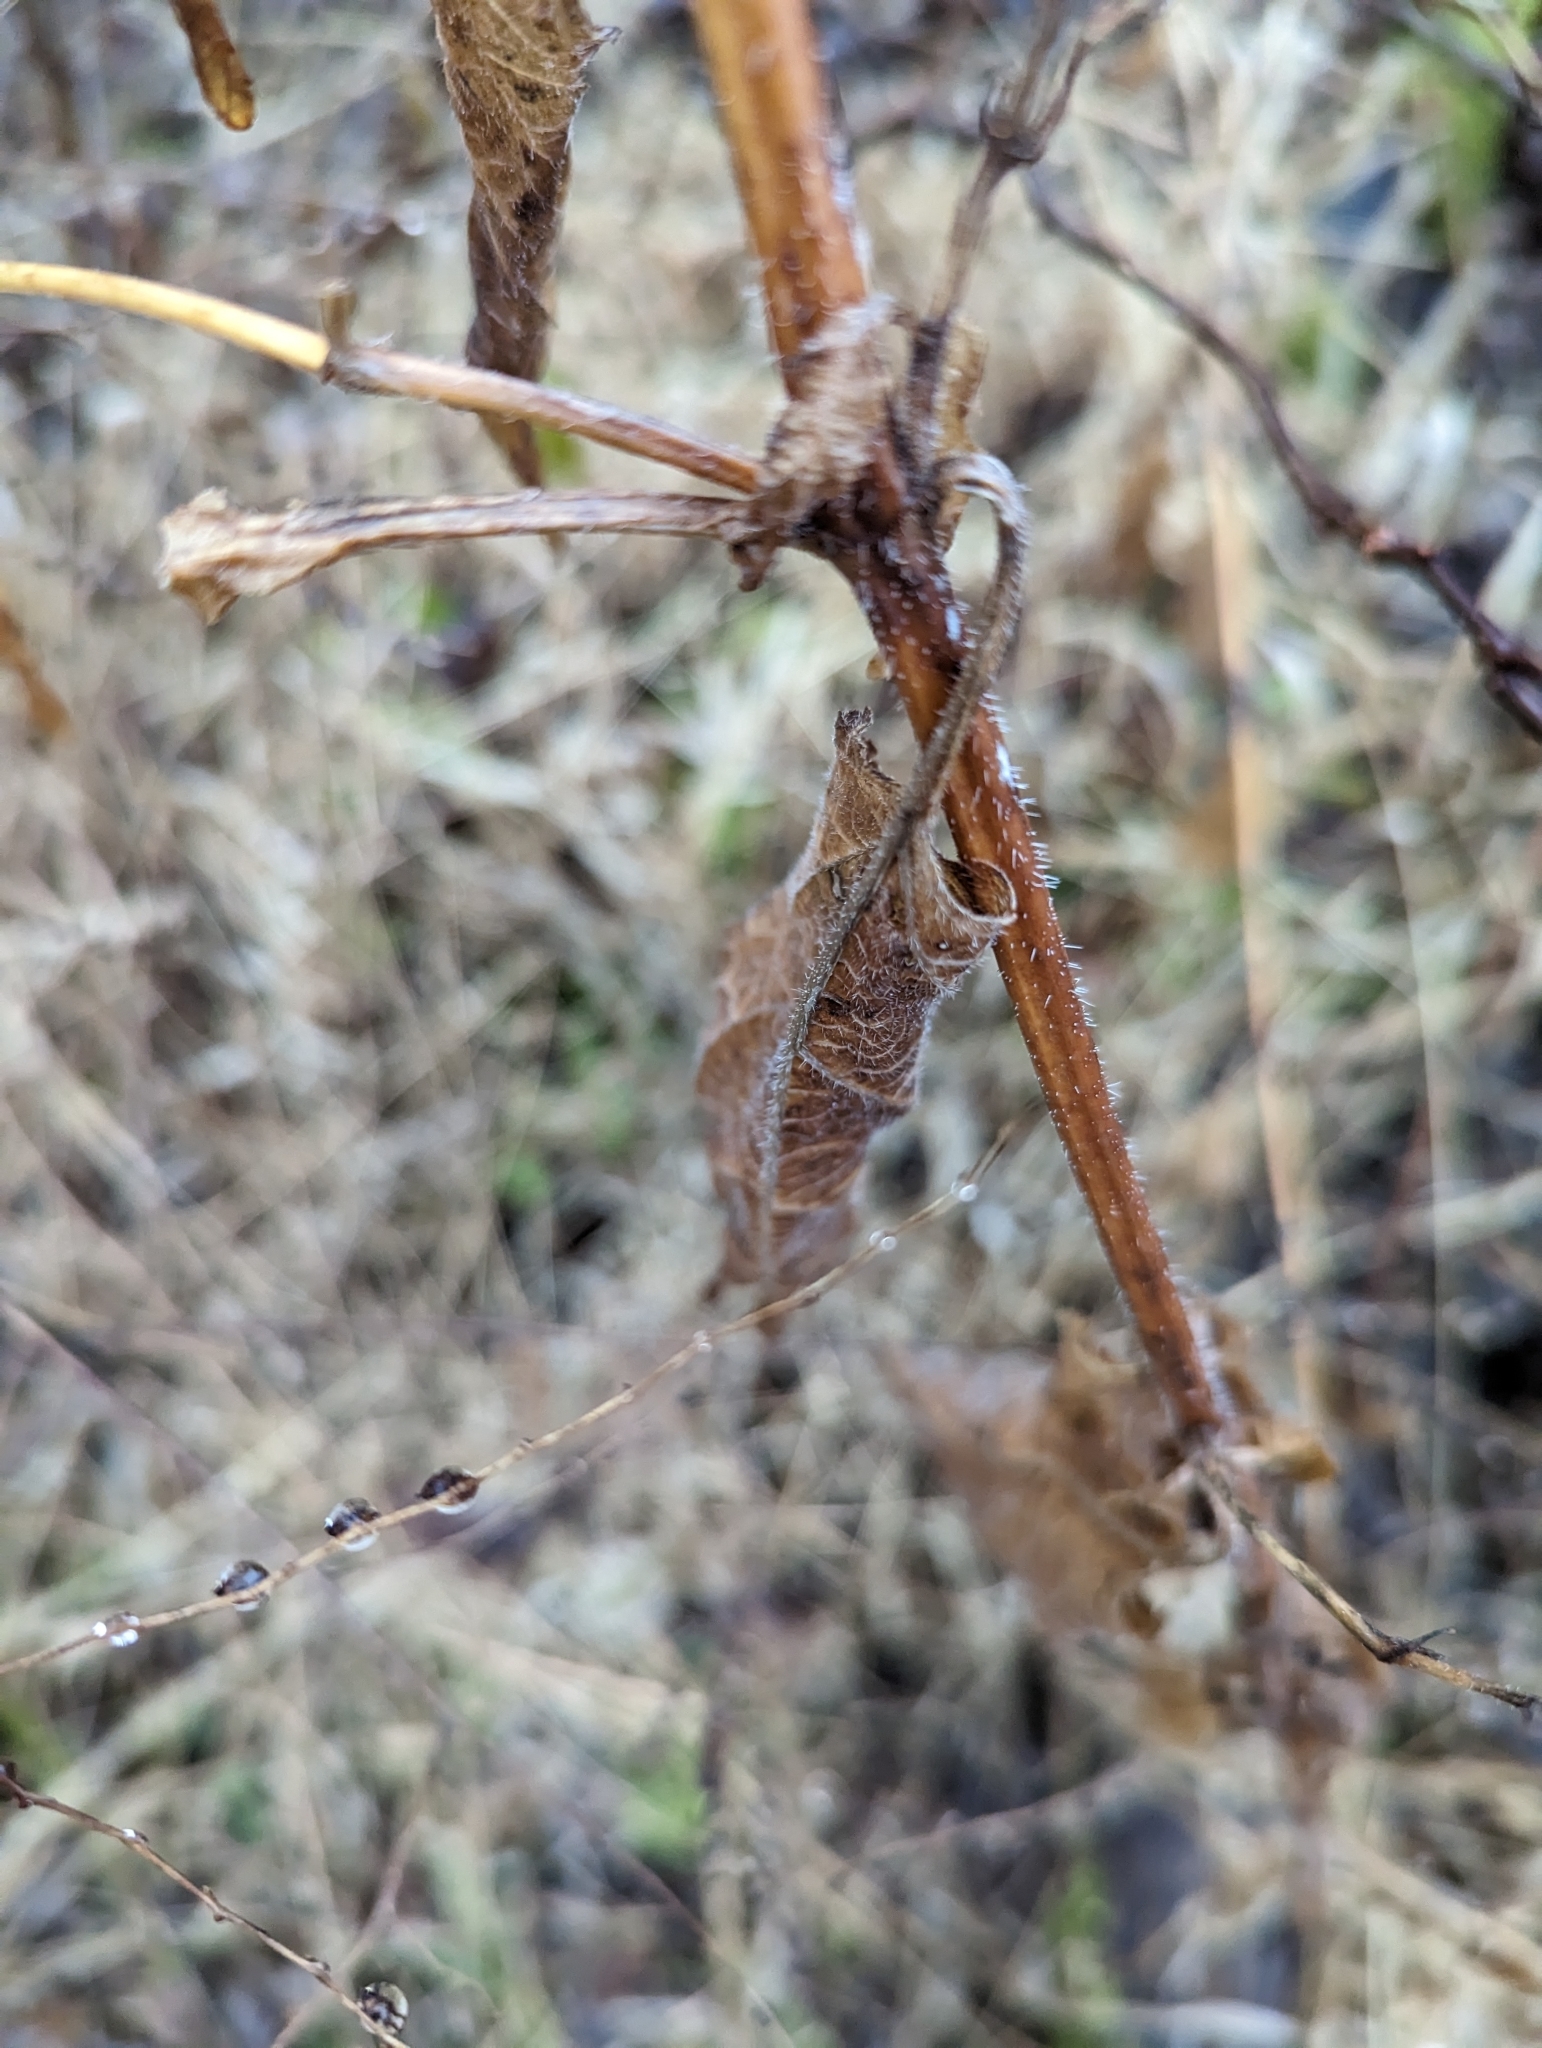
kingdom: Plantae
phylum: Tracheophyta
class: Magnoliopsida
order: Lamiales
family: Verbenaceae
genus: Verbena
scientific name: Verbena urticifolia
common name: Nettle-leaved vervain
